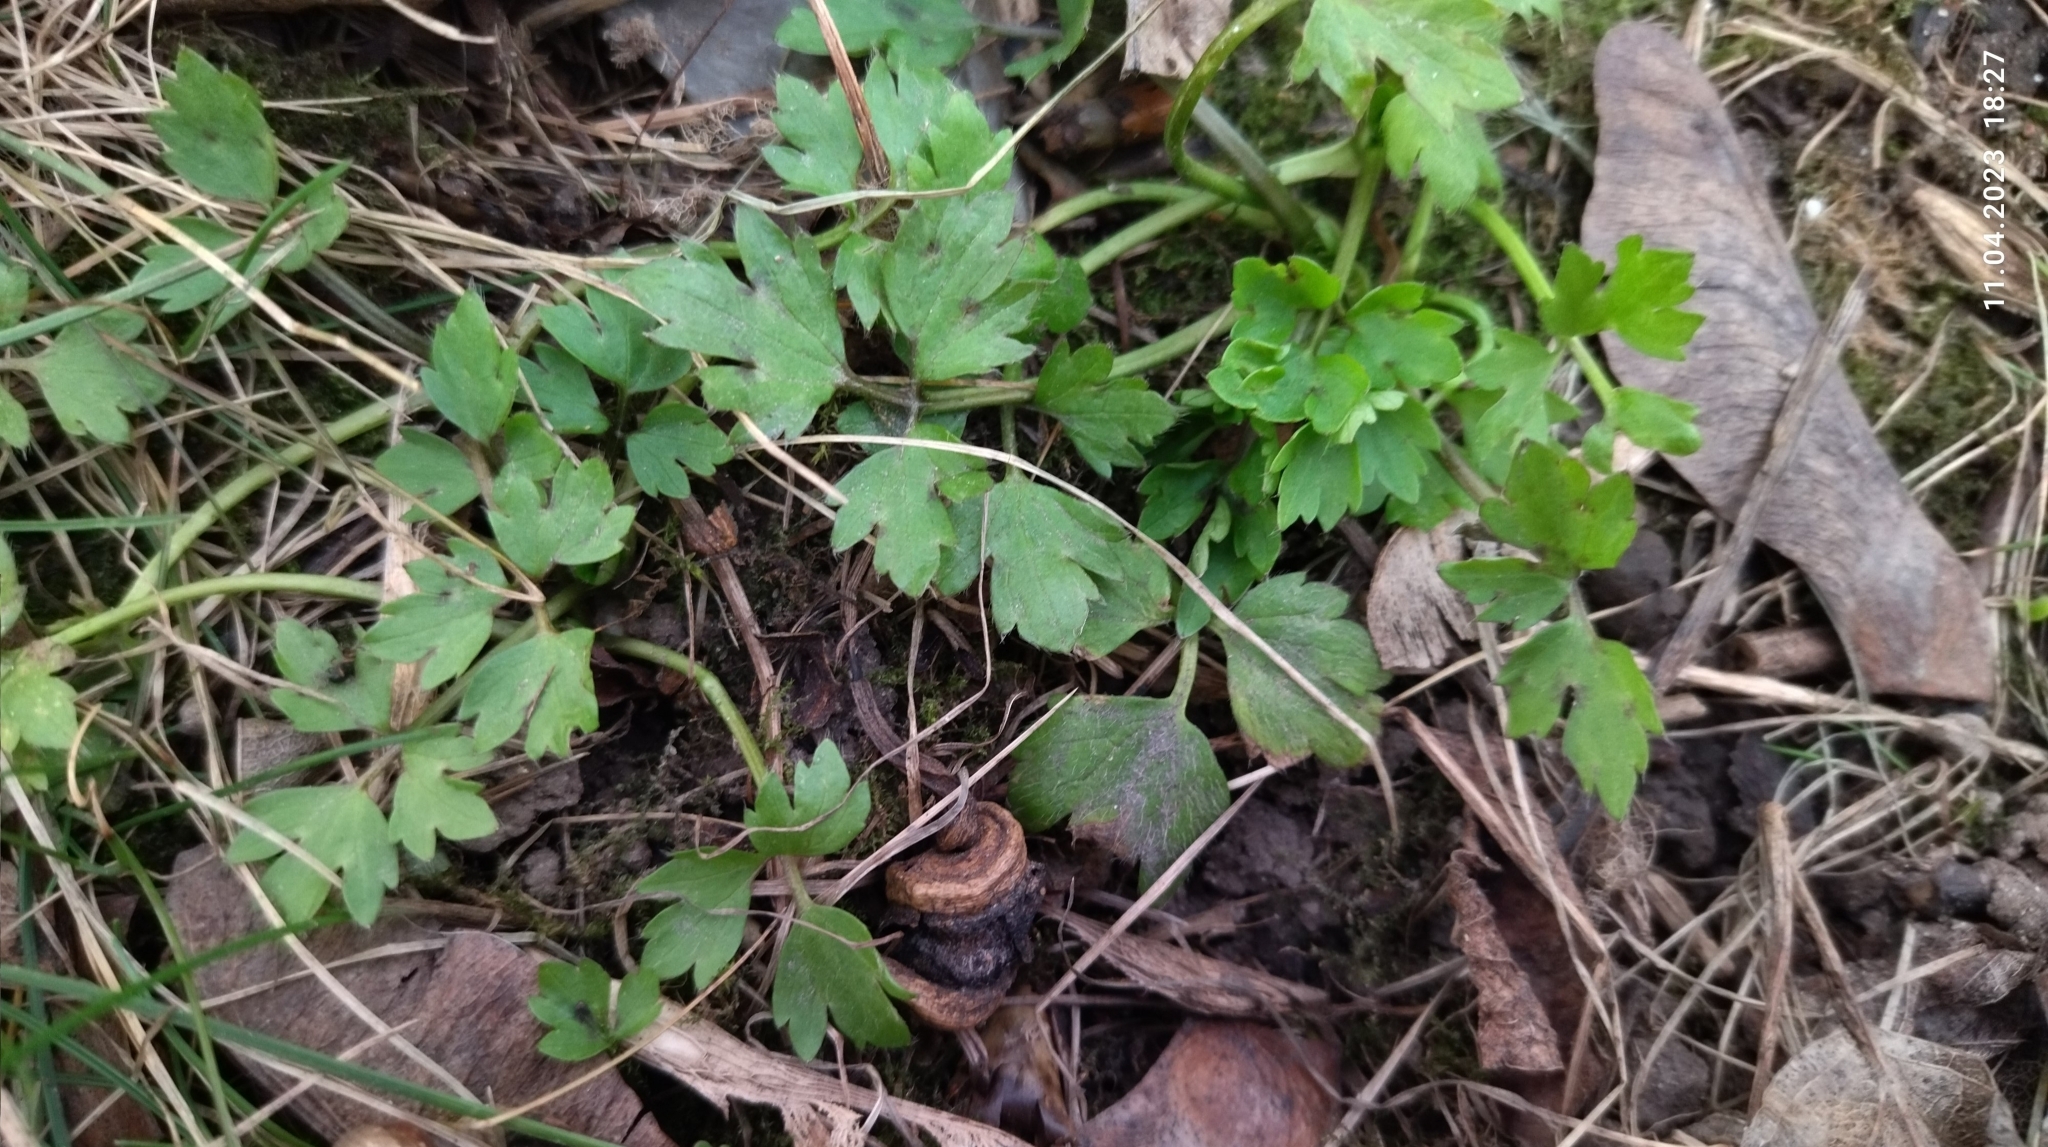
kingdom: Plantae
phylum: Tracheophyta
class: Magnoliopsida
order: Ranunculales
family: Ranunculaceae
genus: Ranunculus
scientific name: Ranunculus repens
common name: Creeping buttercup
